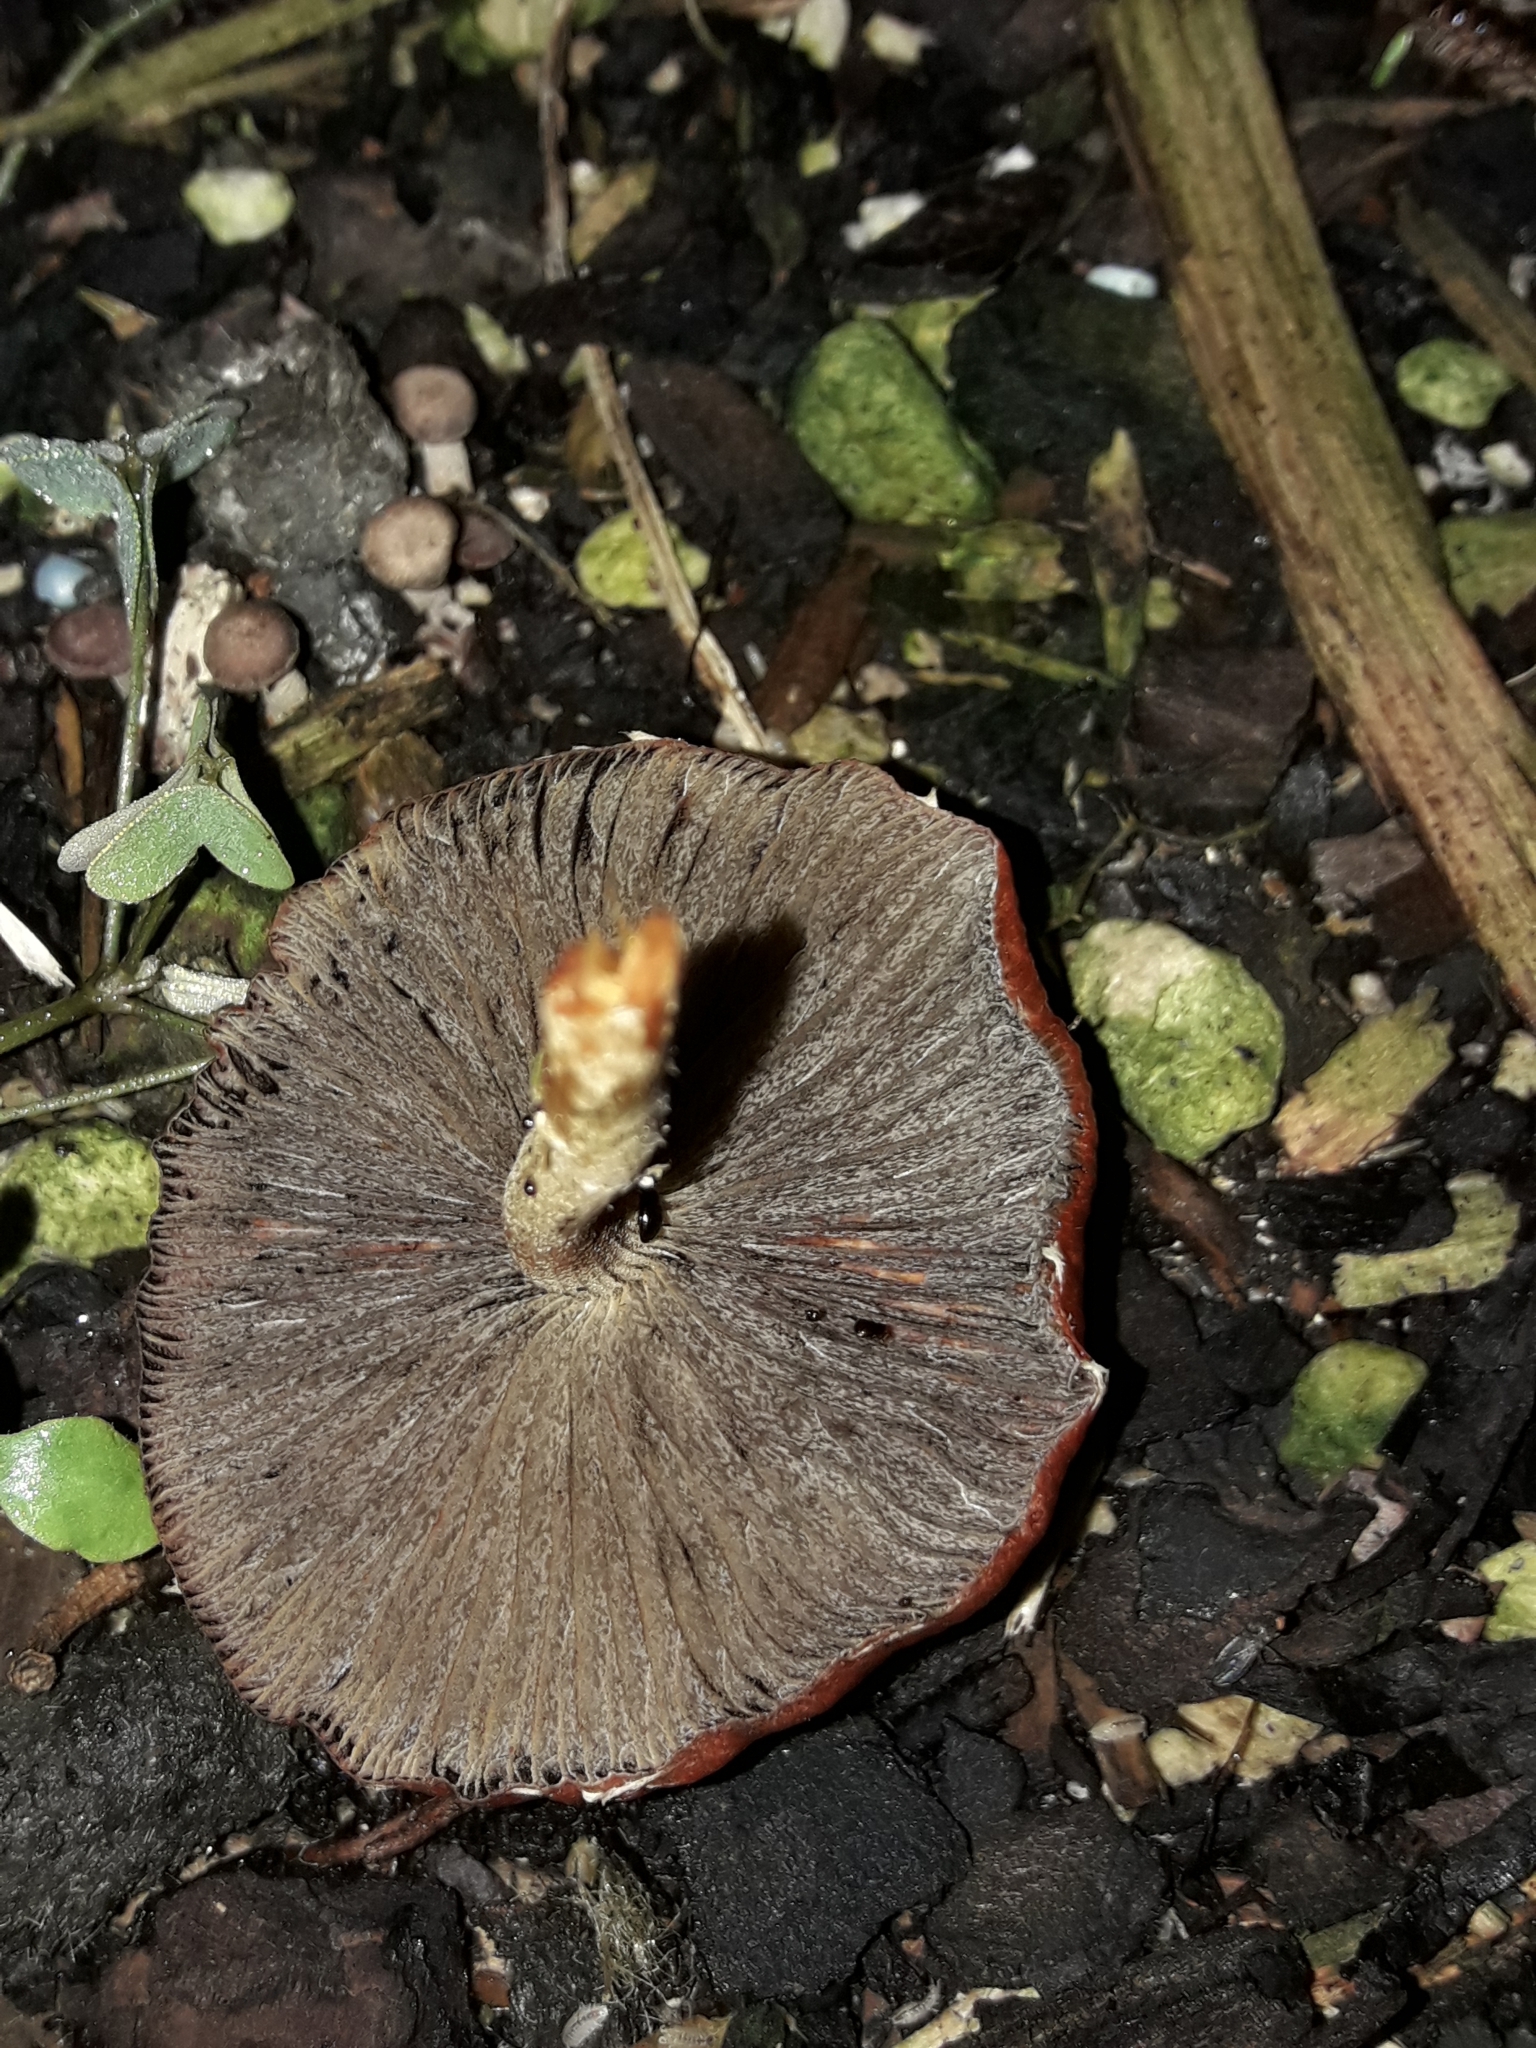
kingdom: Fungi
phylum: Basidiomycota
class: Agaricomycetes
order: Agaricales
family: Strophariaceae
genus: Leratiomyces
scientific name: Leratiomyces ceres
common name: Redlead roundhead
